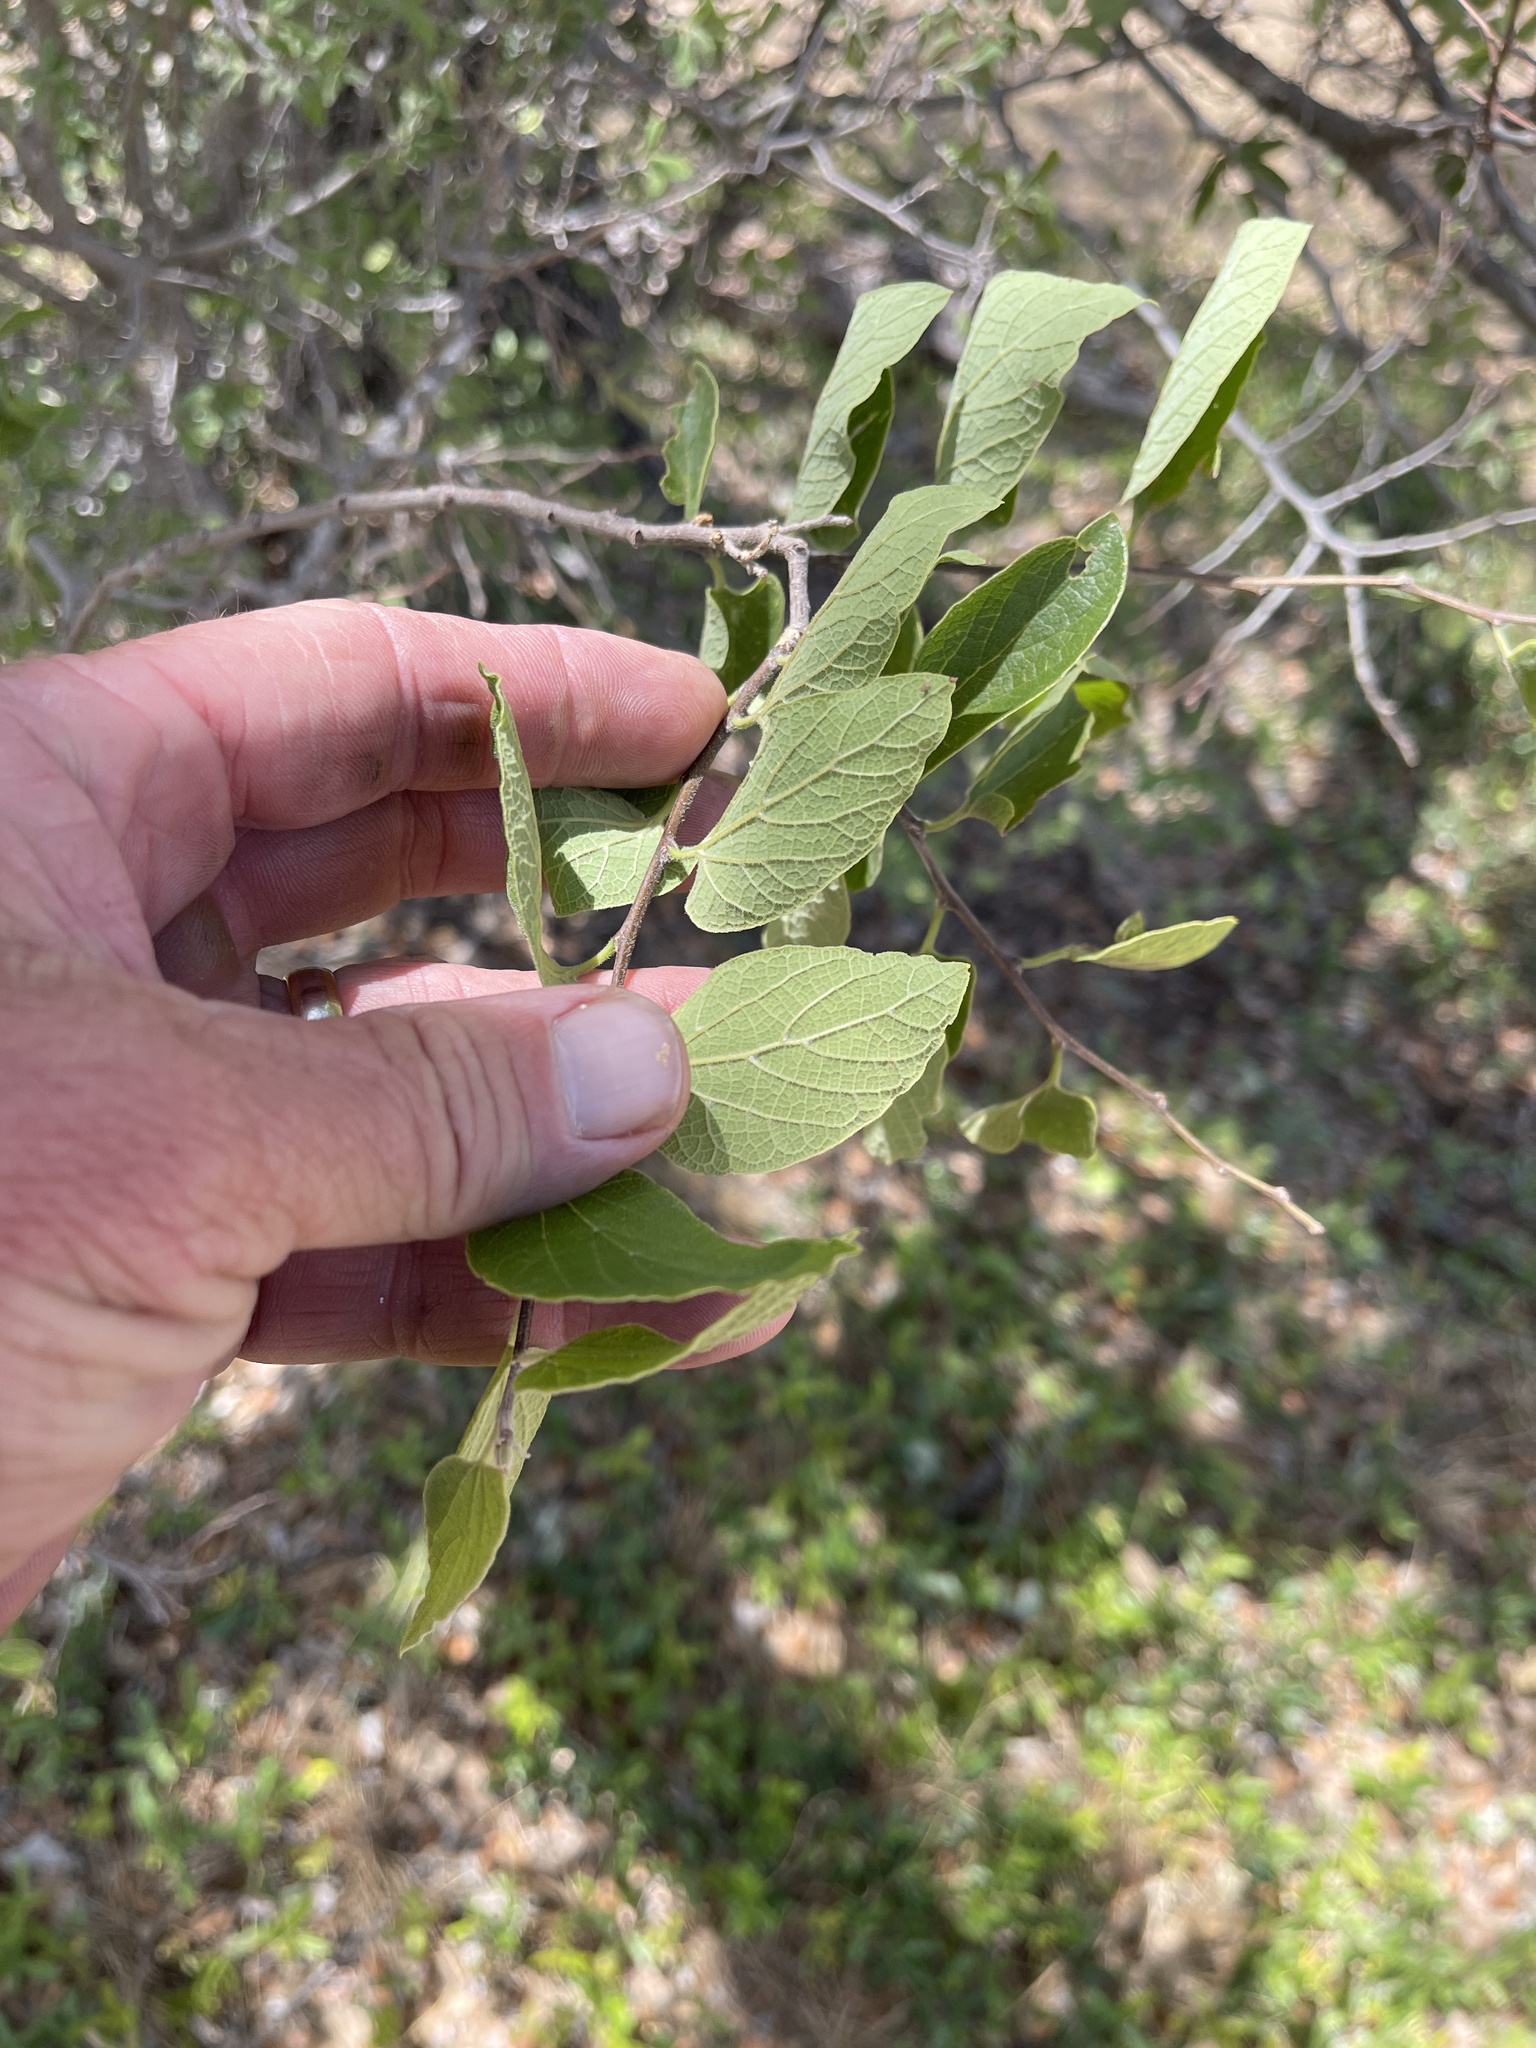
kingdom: Plantae
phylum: Tracheophyta
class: Magnoliopsida
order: Rosales
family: Cannabaceae
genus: Celtis
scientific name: Celtis reticulata
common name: Netleaf hackberry
